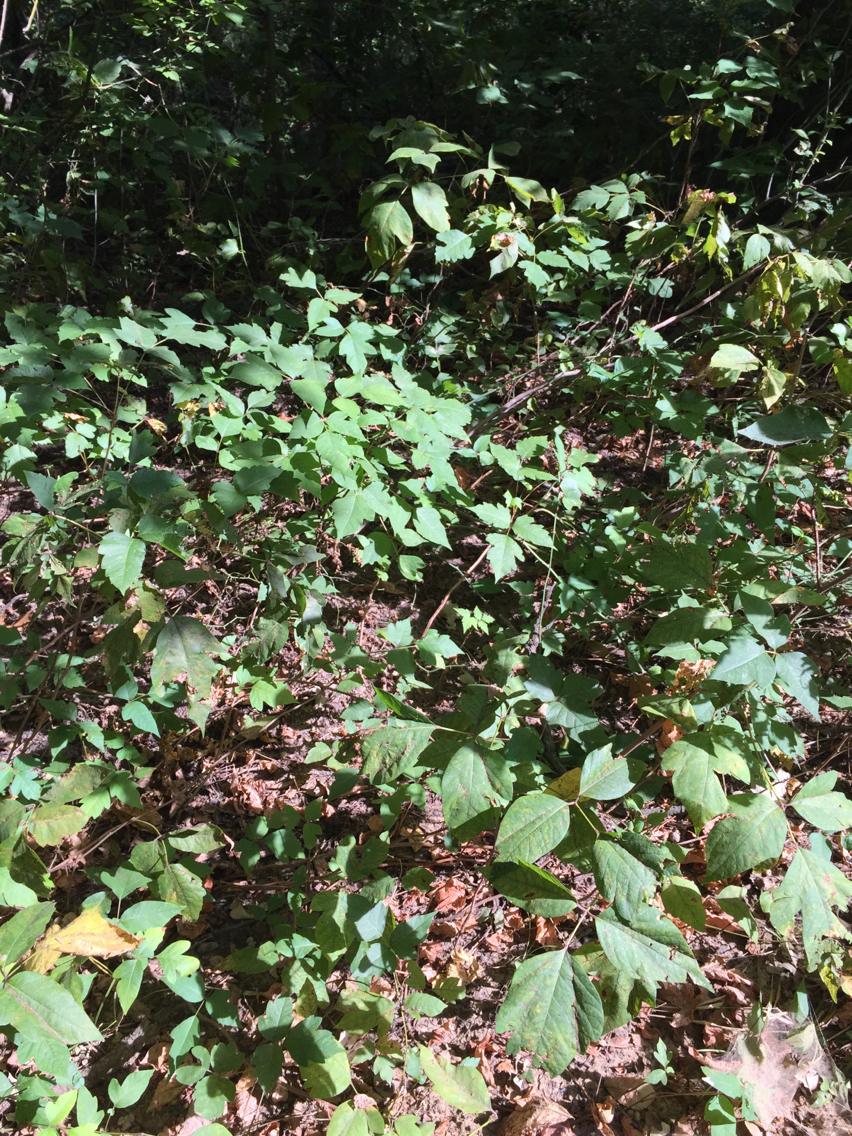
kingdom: Plantae
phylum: Tracheophyta
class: Magnoliopsida
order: Sapindales
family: Anacardiaceae
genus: Toxicodendron
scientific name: Toxicodendron radicans
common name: Poison ivy
